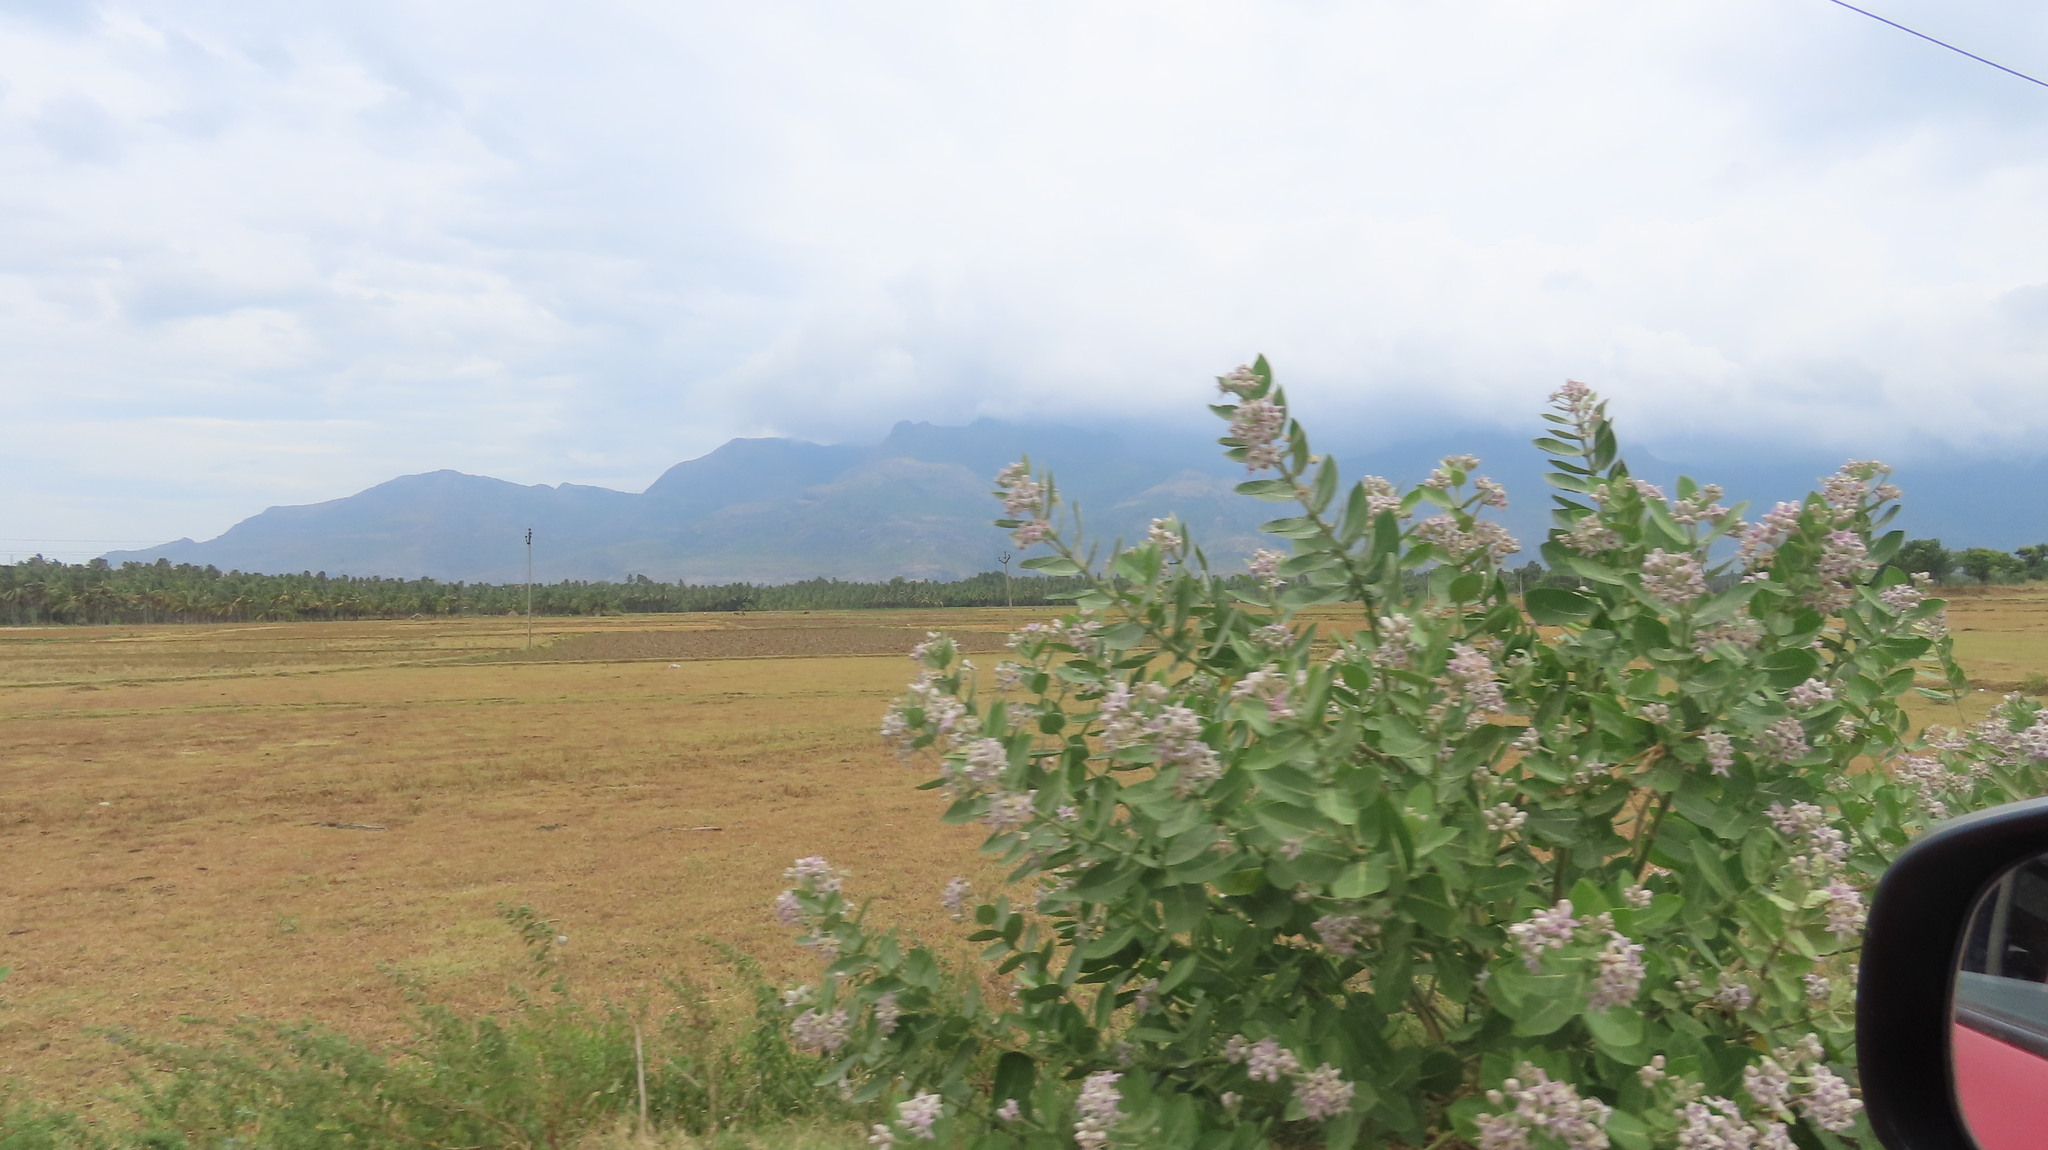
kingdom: Plantae
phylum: Tracheophyta
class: Magnoliopsida
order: Gentianales
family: Apocynaceae
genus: Calotropis
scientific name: Calotropis gigantea
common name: Crown flower
